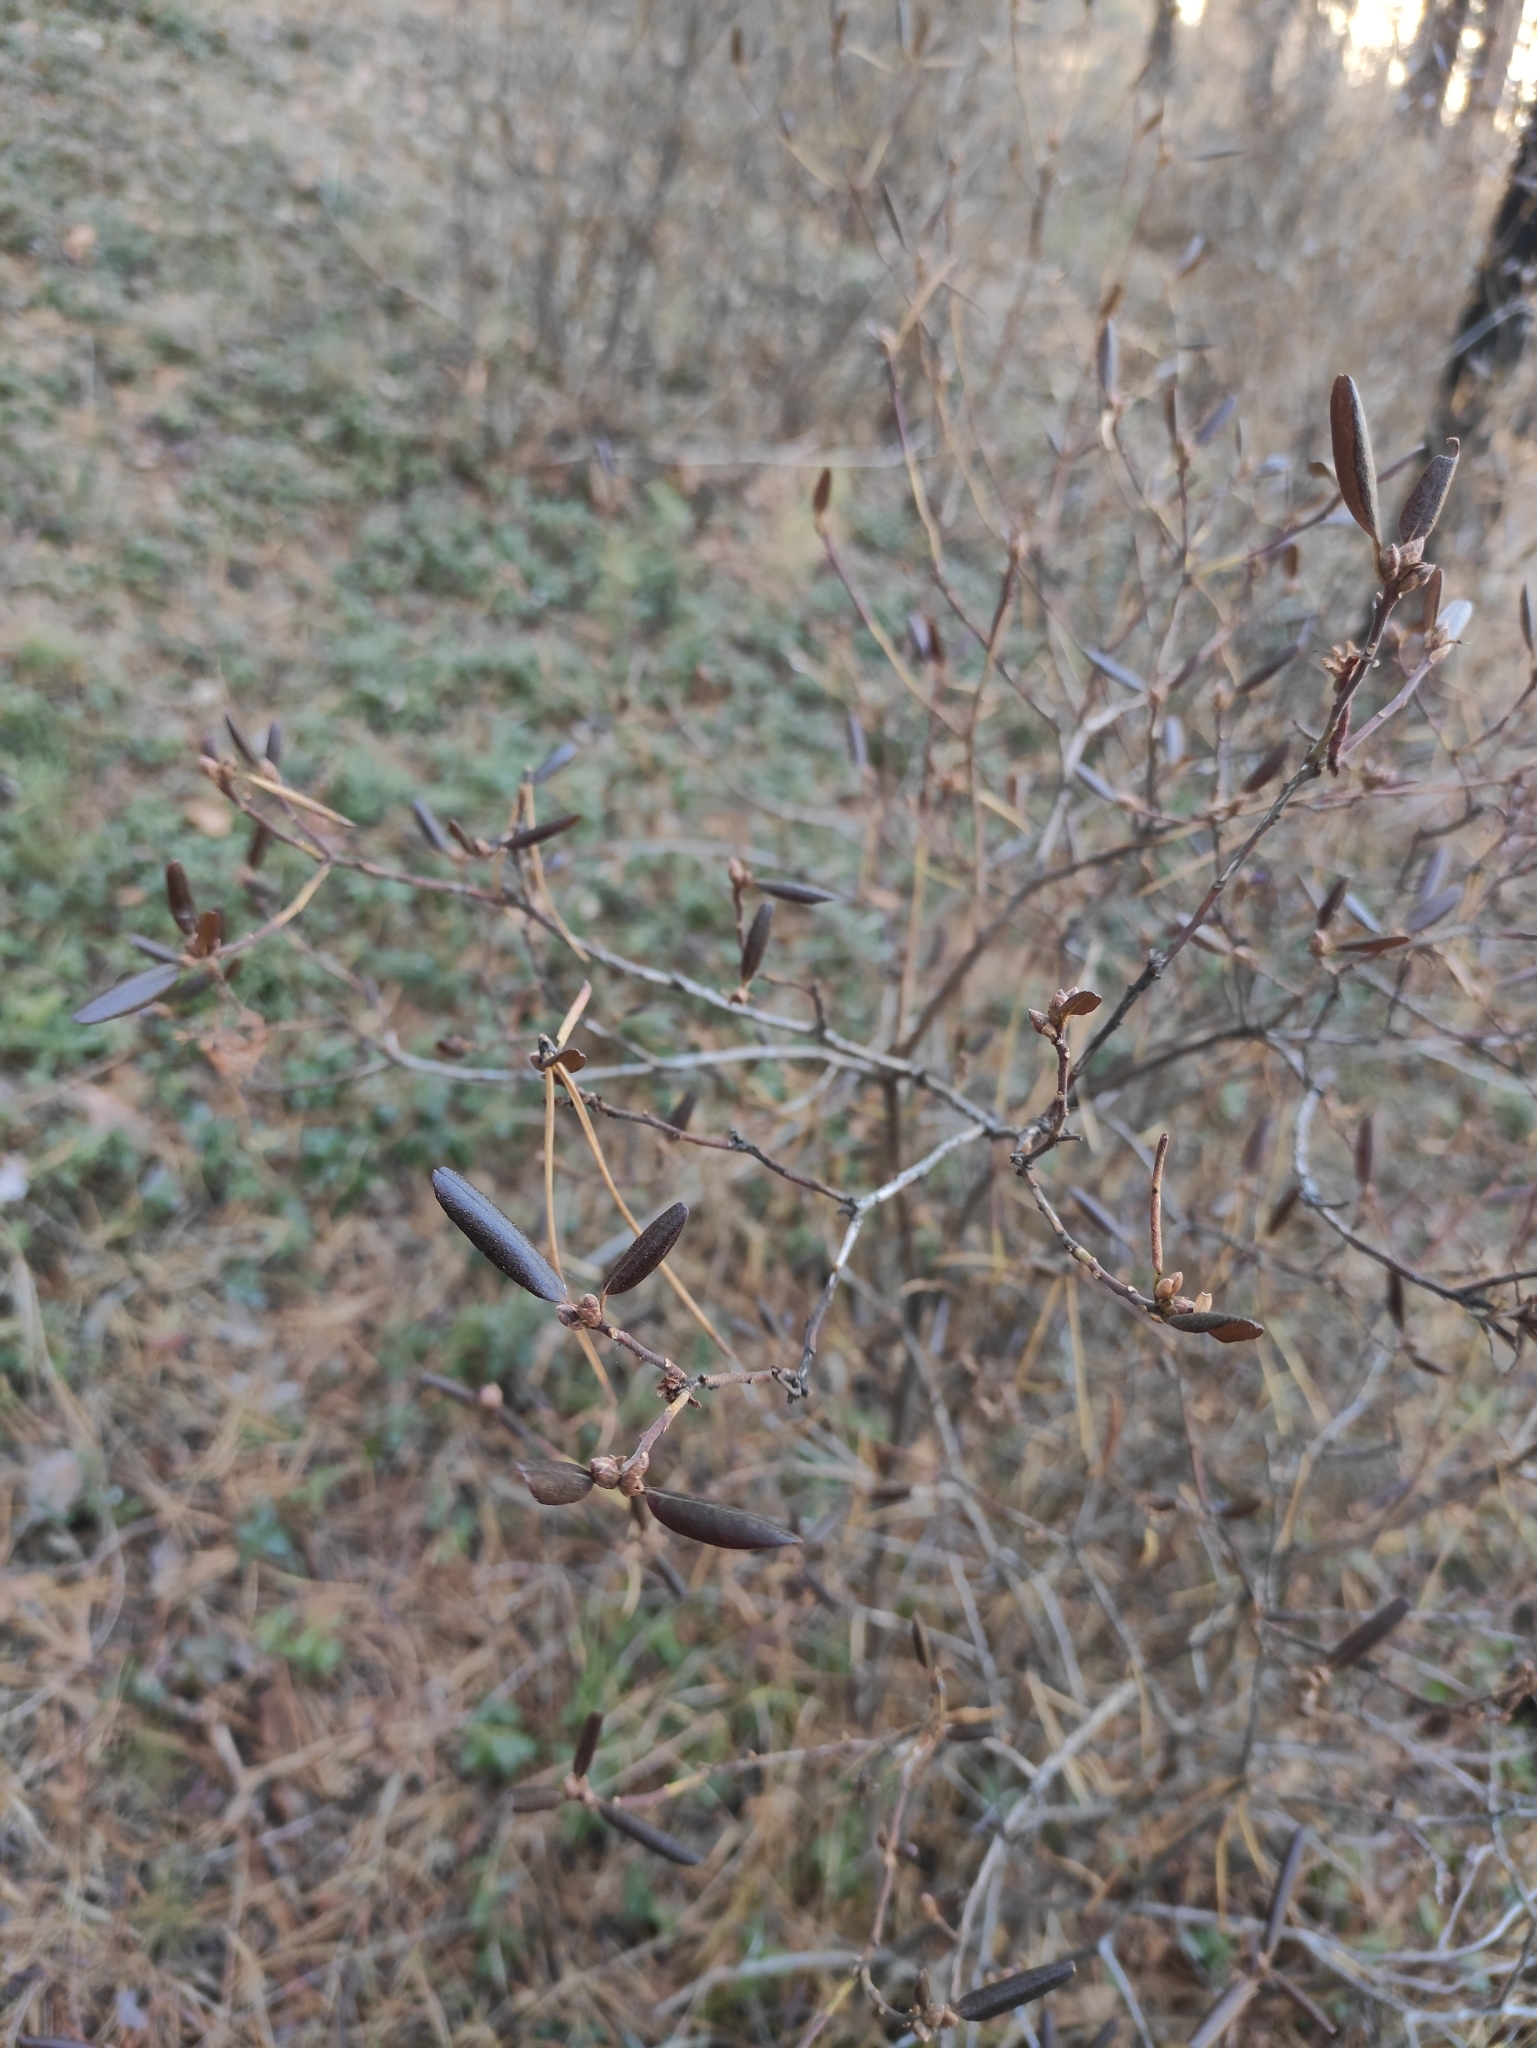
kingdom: Plantae
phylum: Tracheophyta
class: Magnoliopsida
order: Ericales
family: Ericaceae
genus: Rhododendron
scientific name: Rhododendron dauricum
